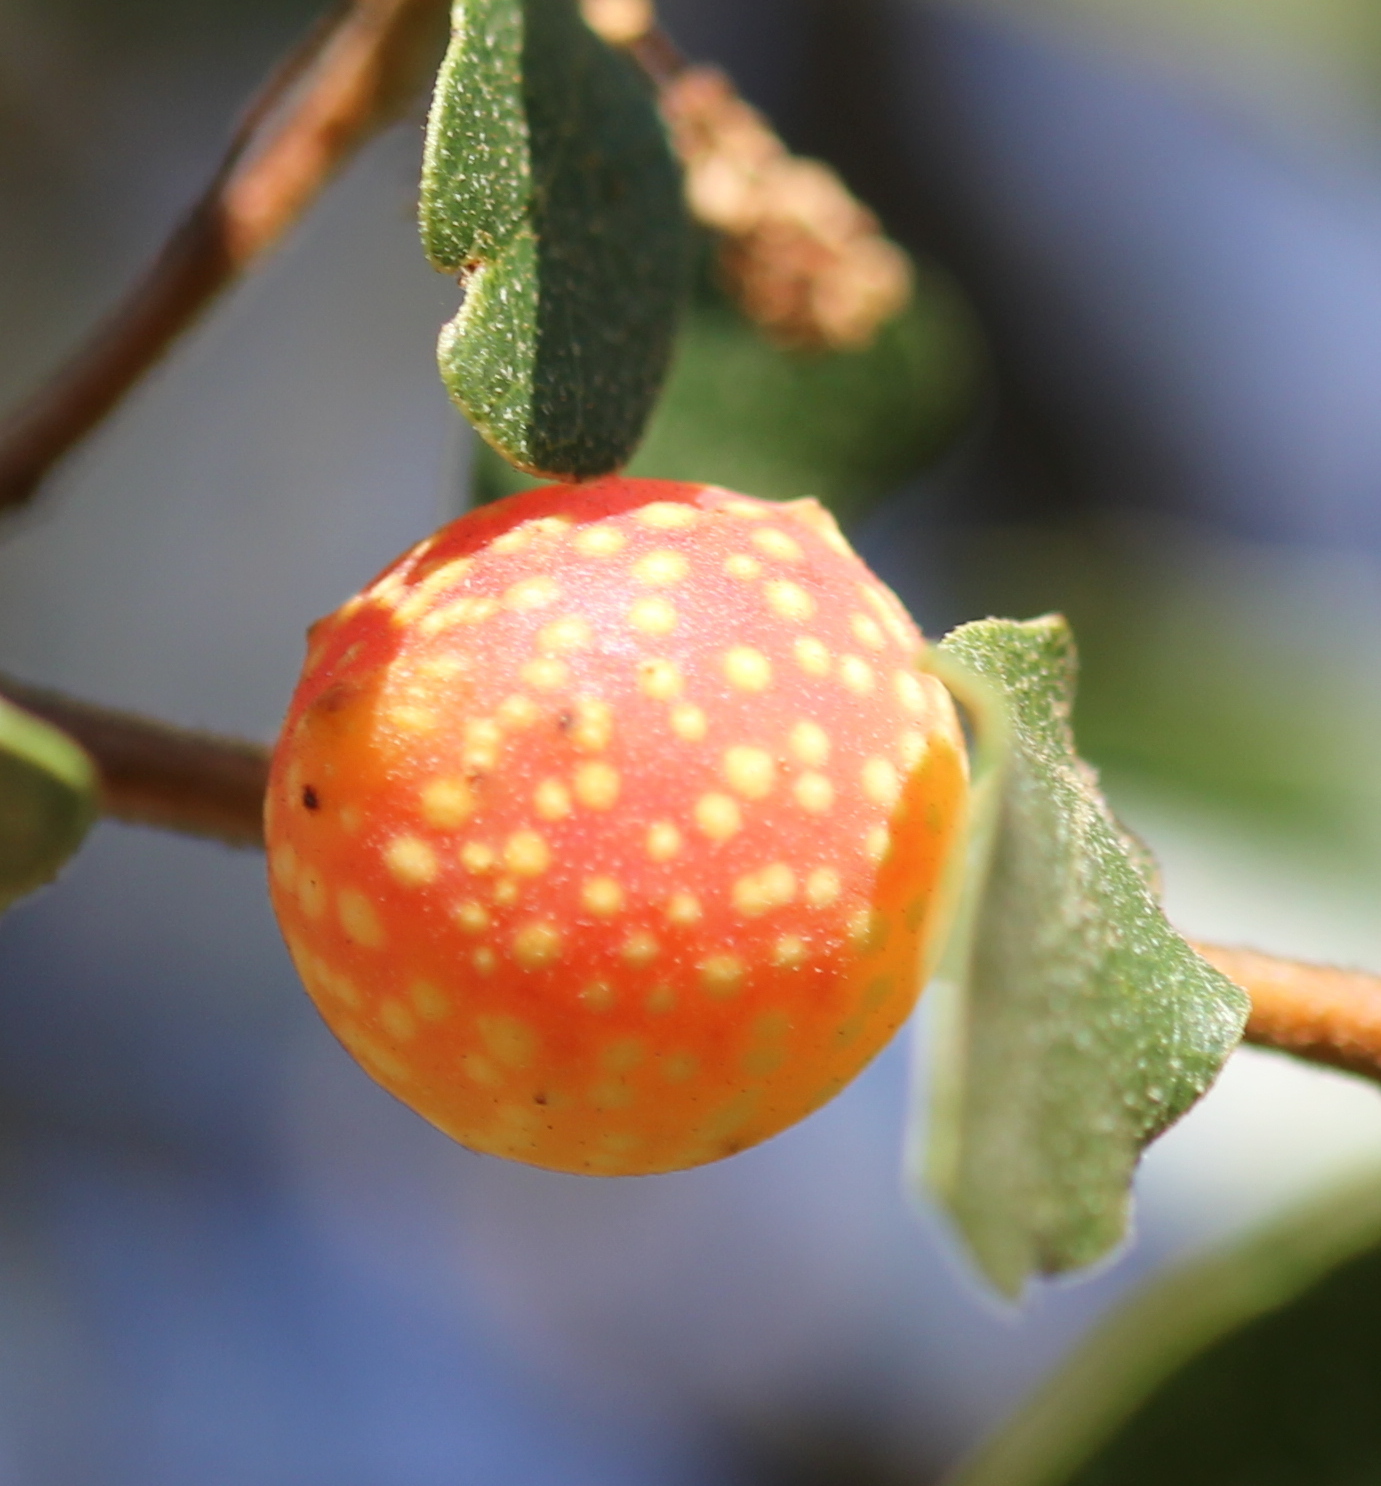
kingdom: Animalia
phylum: Arthropoda
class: Insecta
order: Hymenoptera
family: Cynipidae
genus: Burnettweldia
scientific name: Burnettweldia
